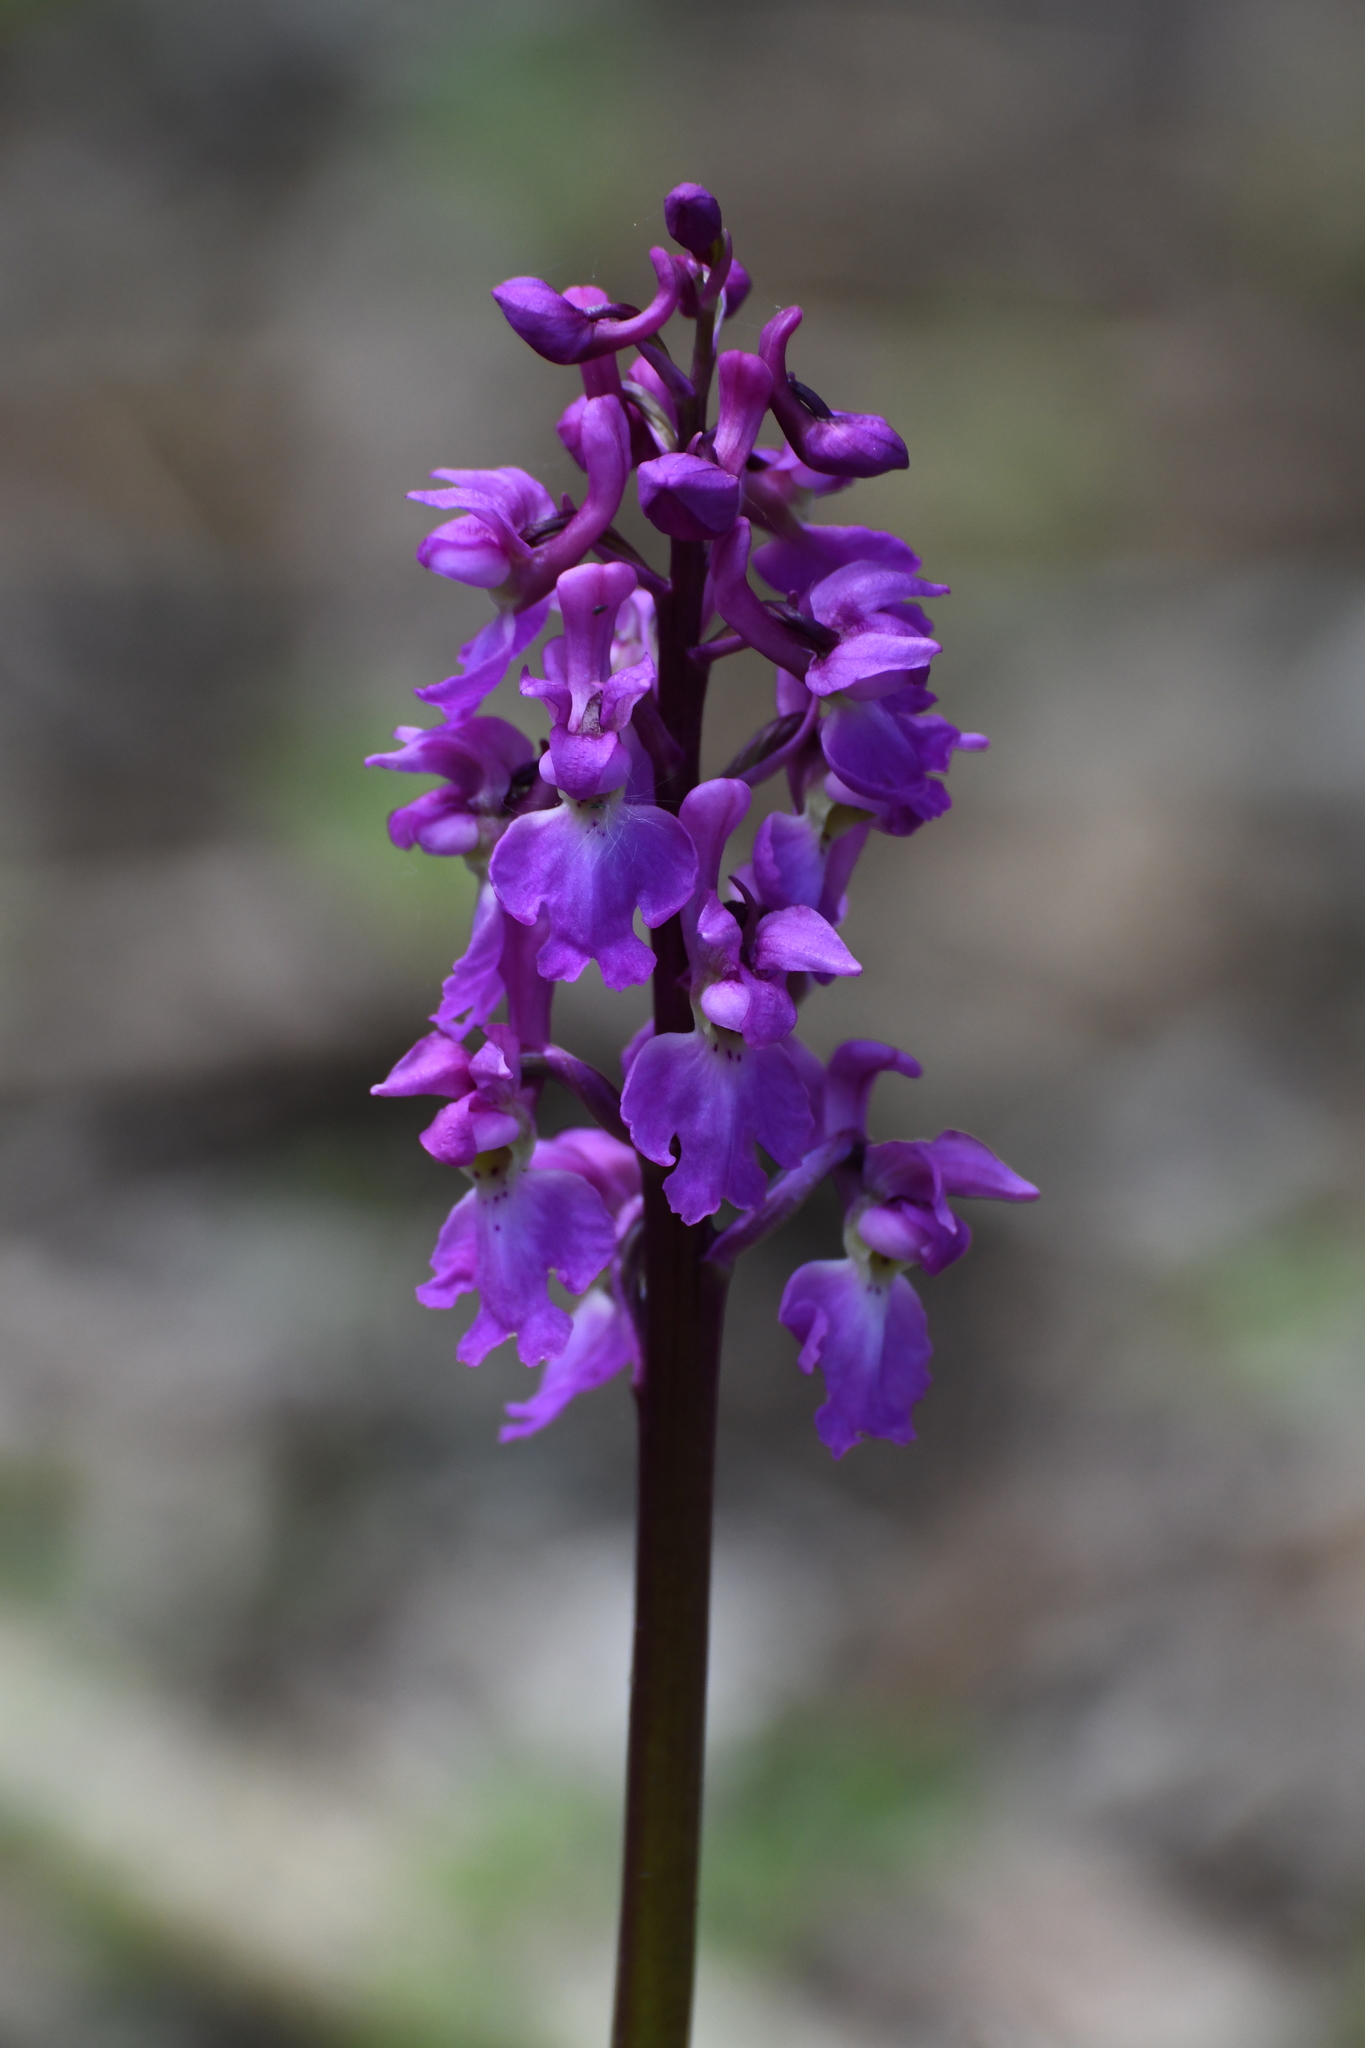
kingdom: Plantae
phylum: Tracheophyta
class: Liliopsida
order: Asparagales
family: Orchidaceae
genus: Orchis
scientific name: Orchis mascula
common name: Early-purple orchid
